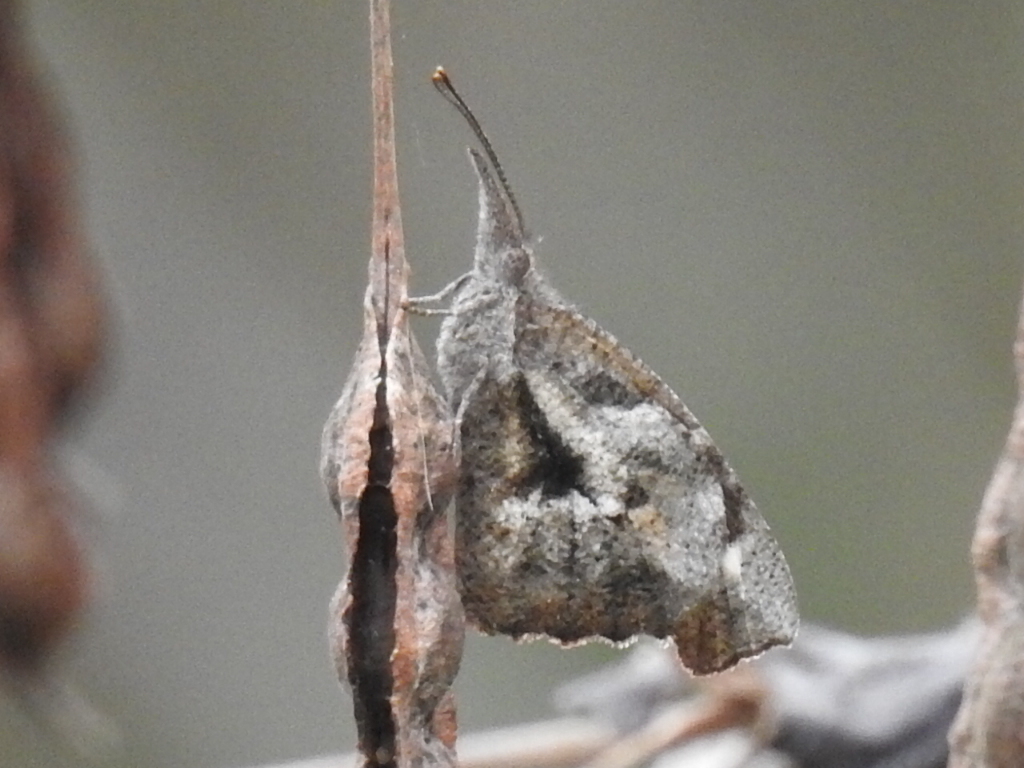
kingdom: Animalia
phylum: Arthropoda
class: Insecta
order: Lepidoptera
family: Nymphalidae
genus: Libytheana
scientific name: Libytheana carinenta
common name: American snout
